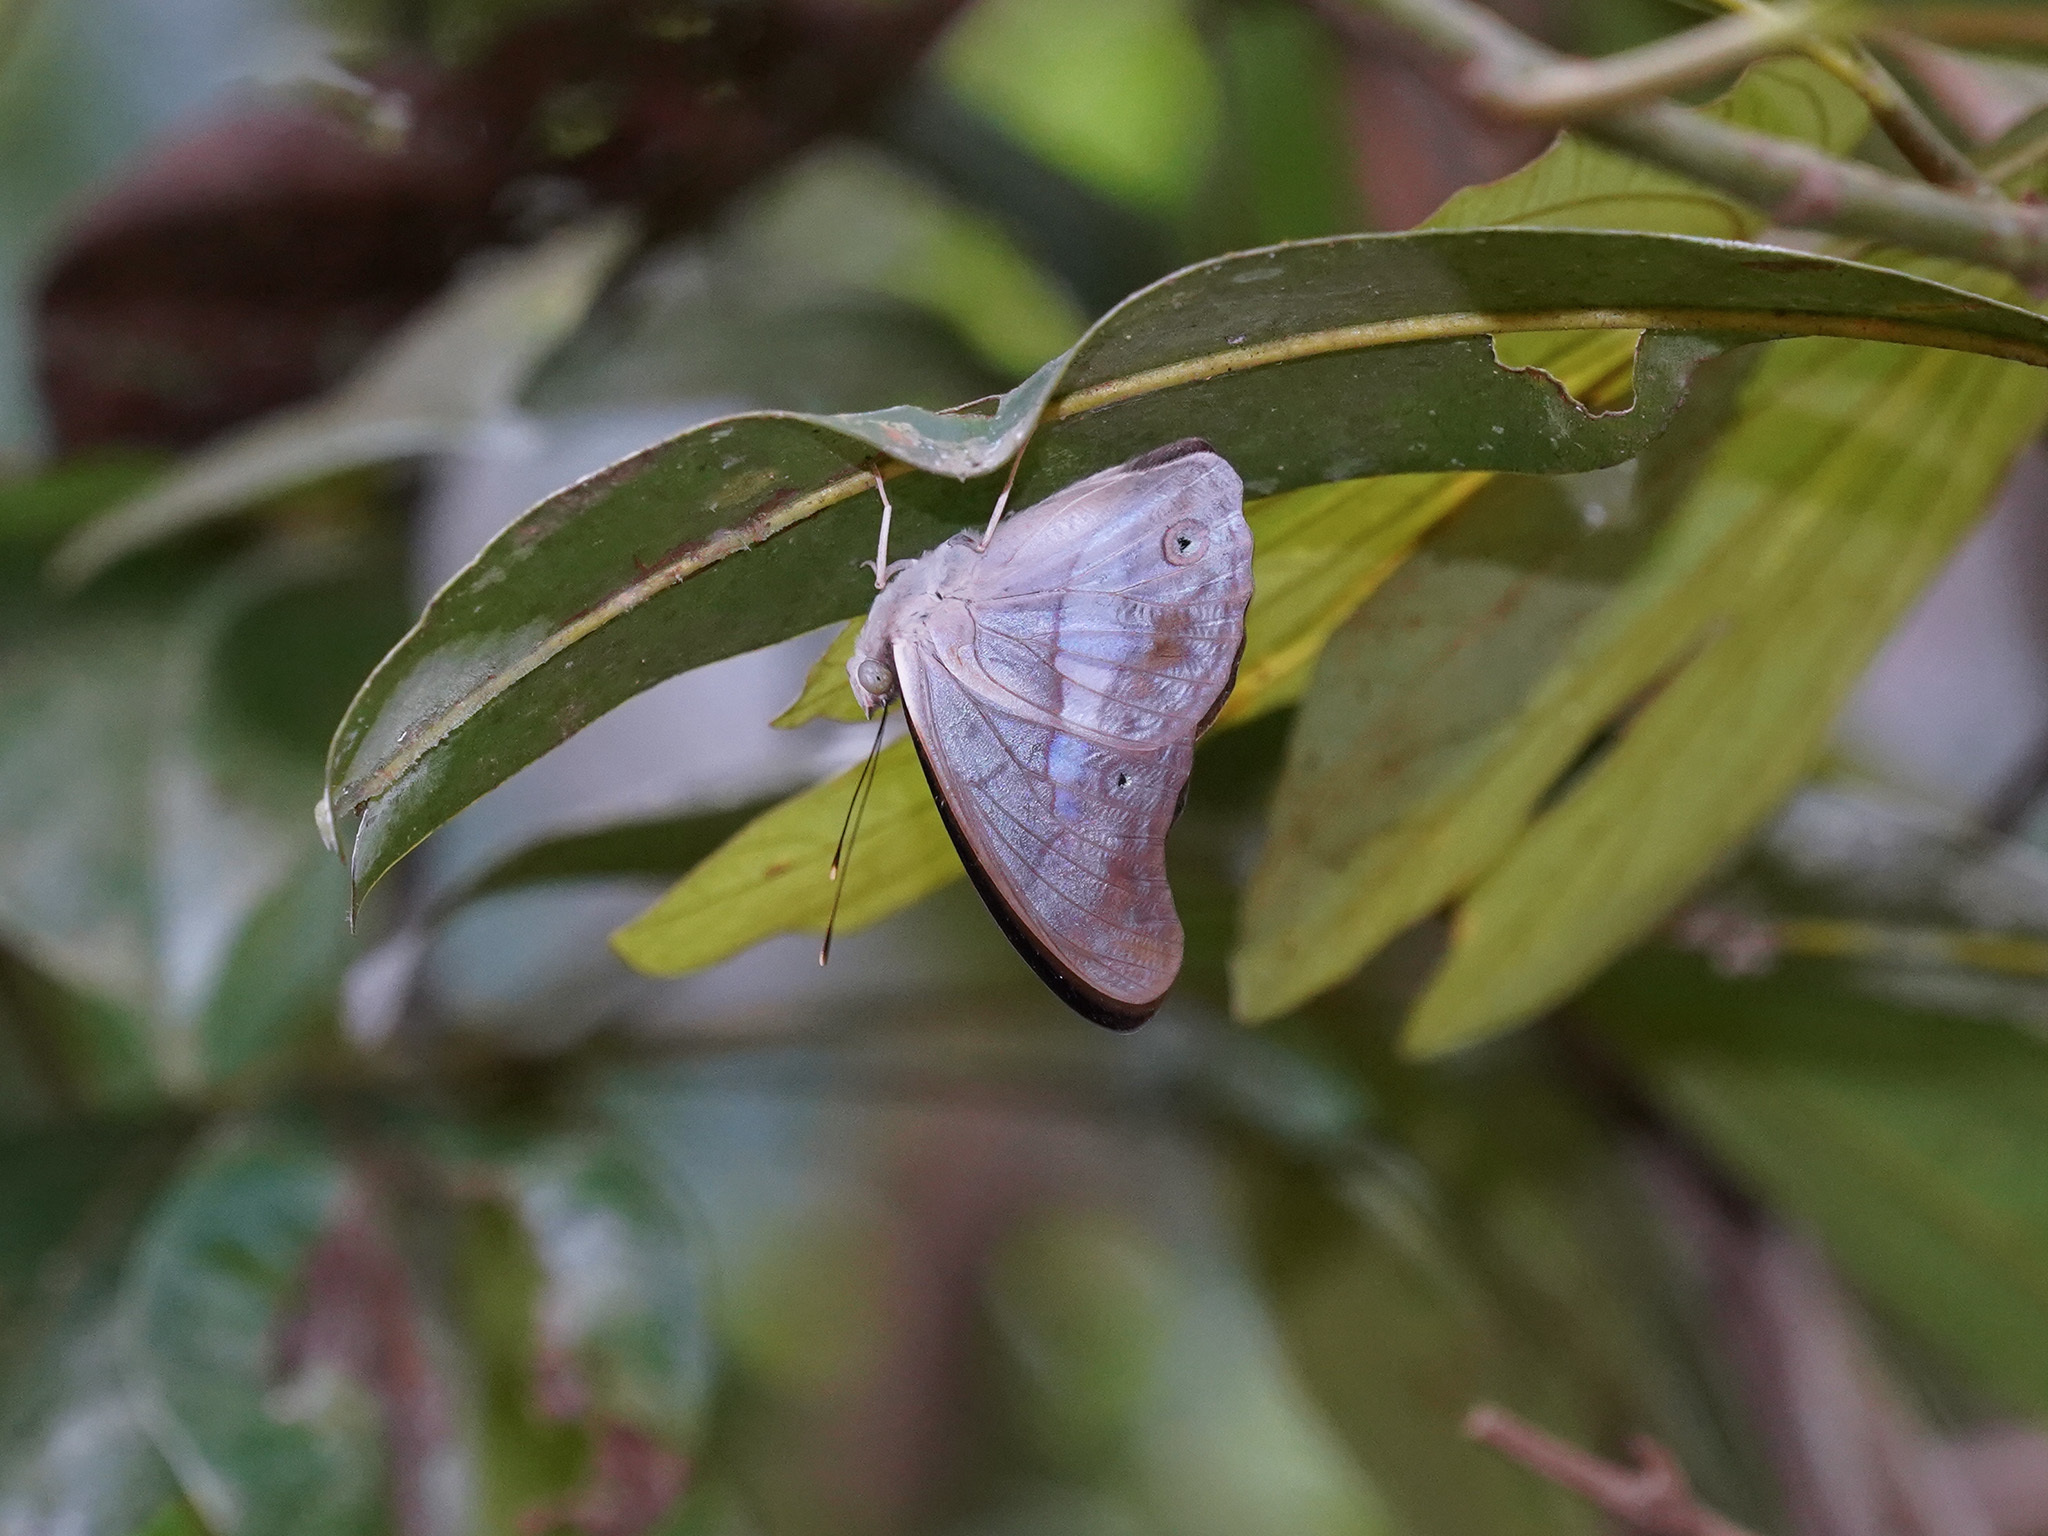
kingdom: Animalia
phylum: Arthropoda
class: Insecta
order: Lepidoptera
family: Nymphalidae
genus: Eulaceura
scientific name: Eulaceura osteria
